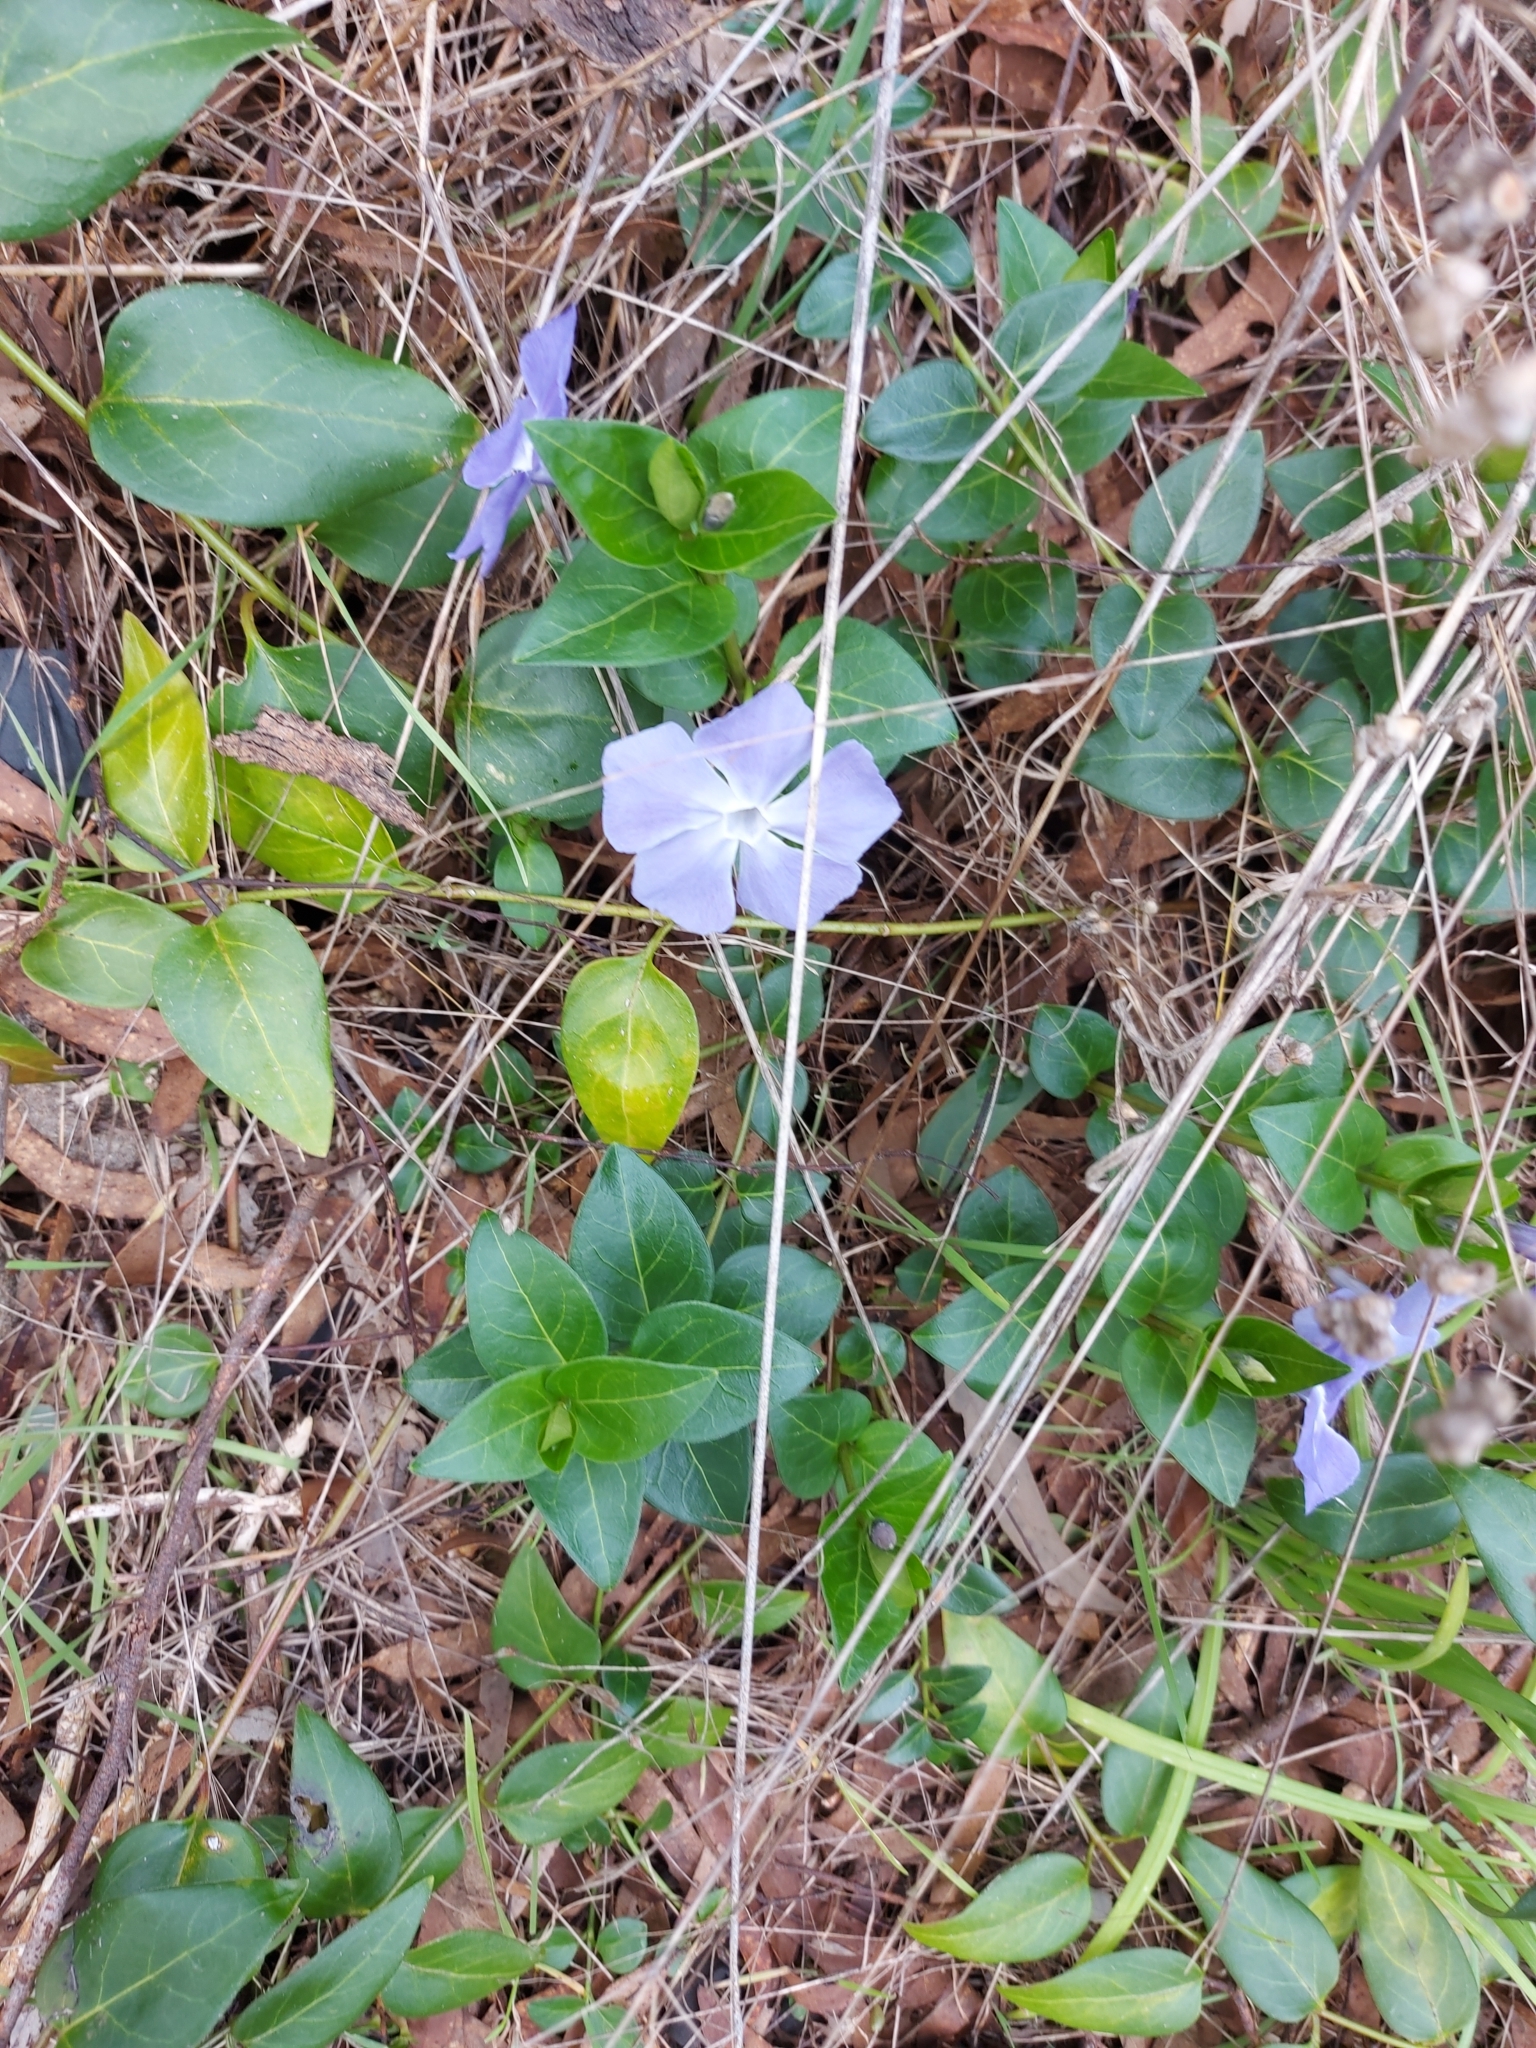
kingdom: Plantae
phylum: Tracheophyta
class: Magnoliopsida
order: Gentianales
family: Apocynaceae
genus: Vinca
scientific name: Vinca major
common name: Greater periwinkle
